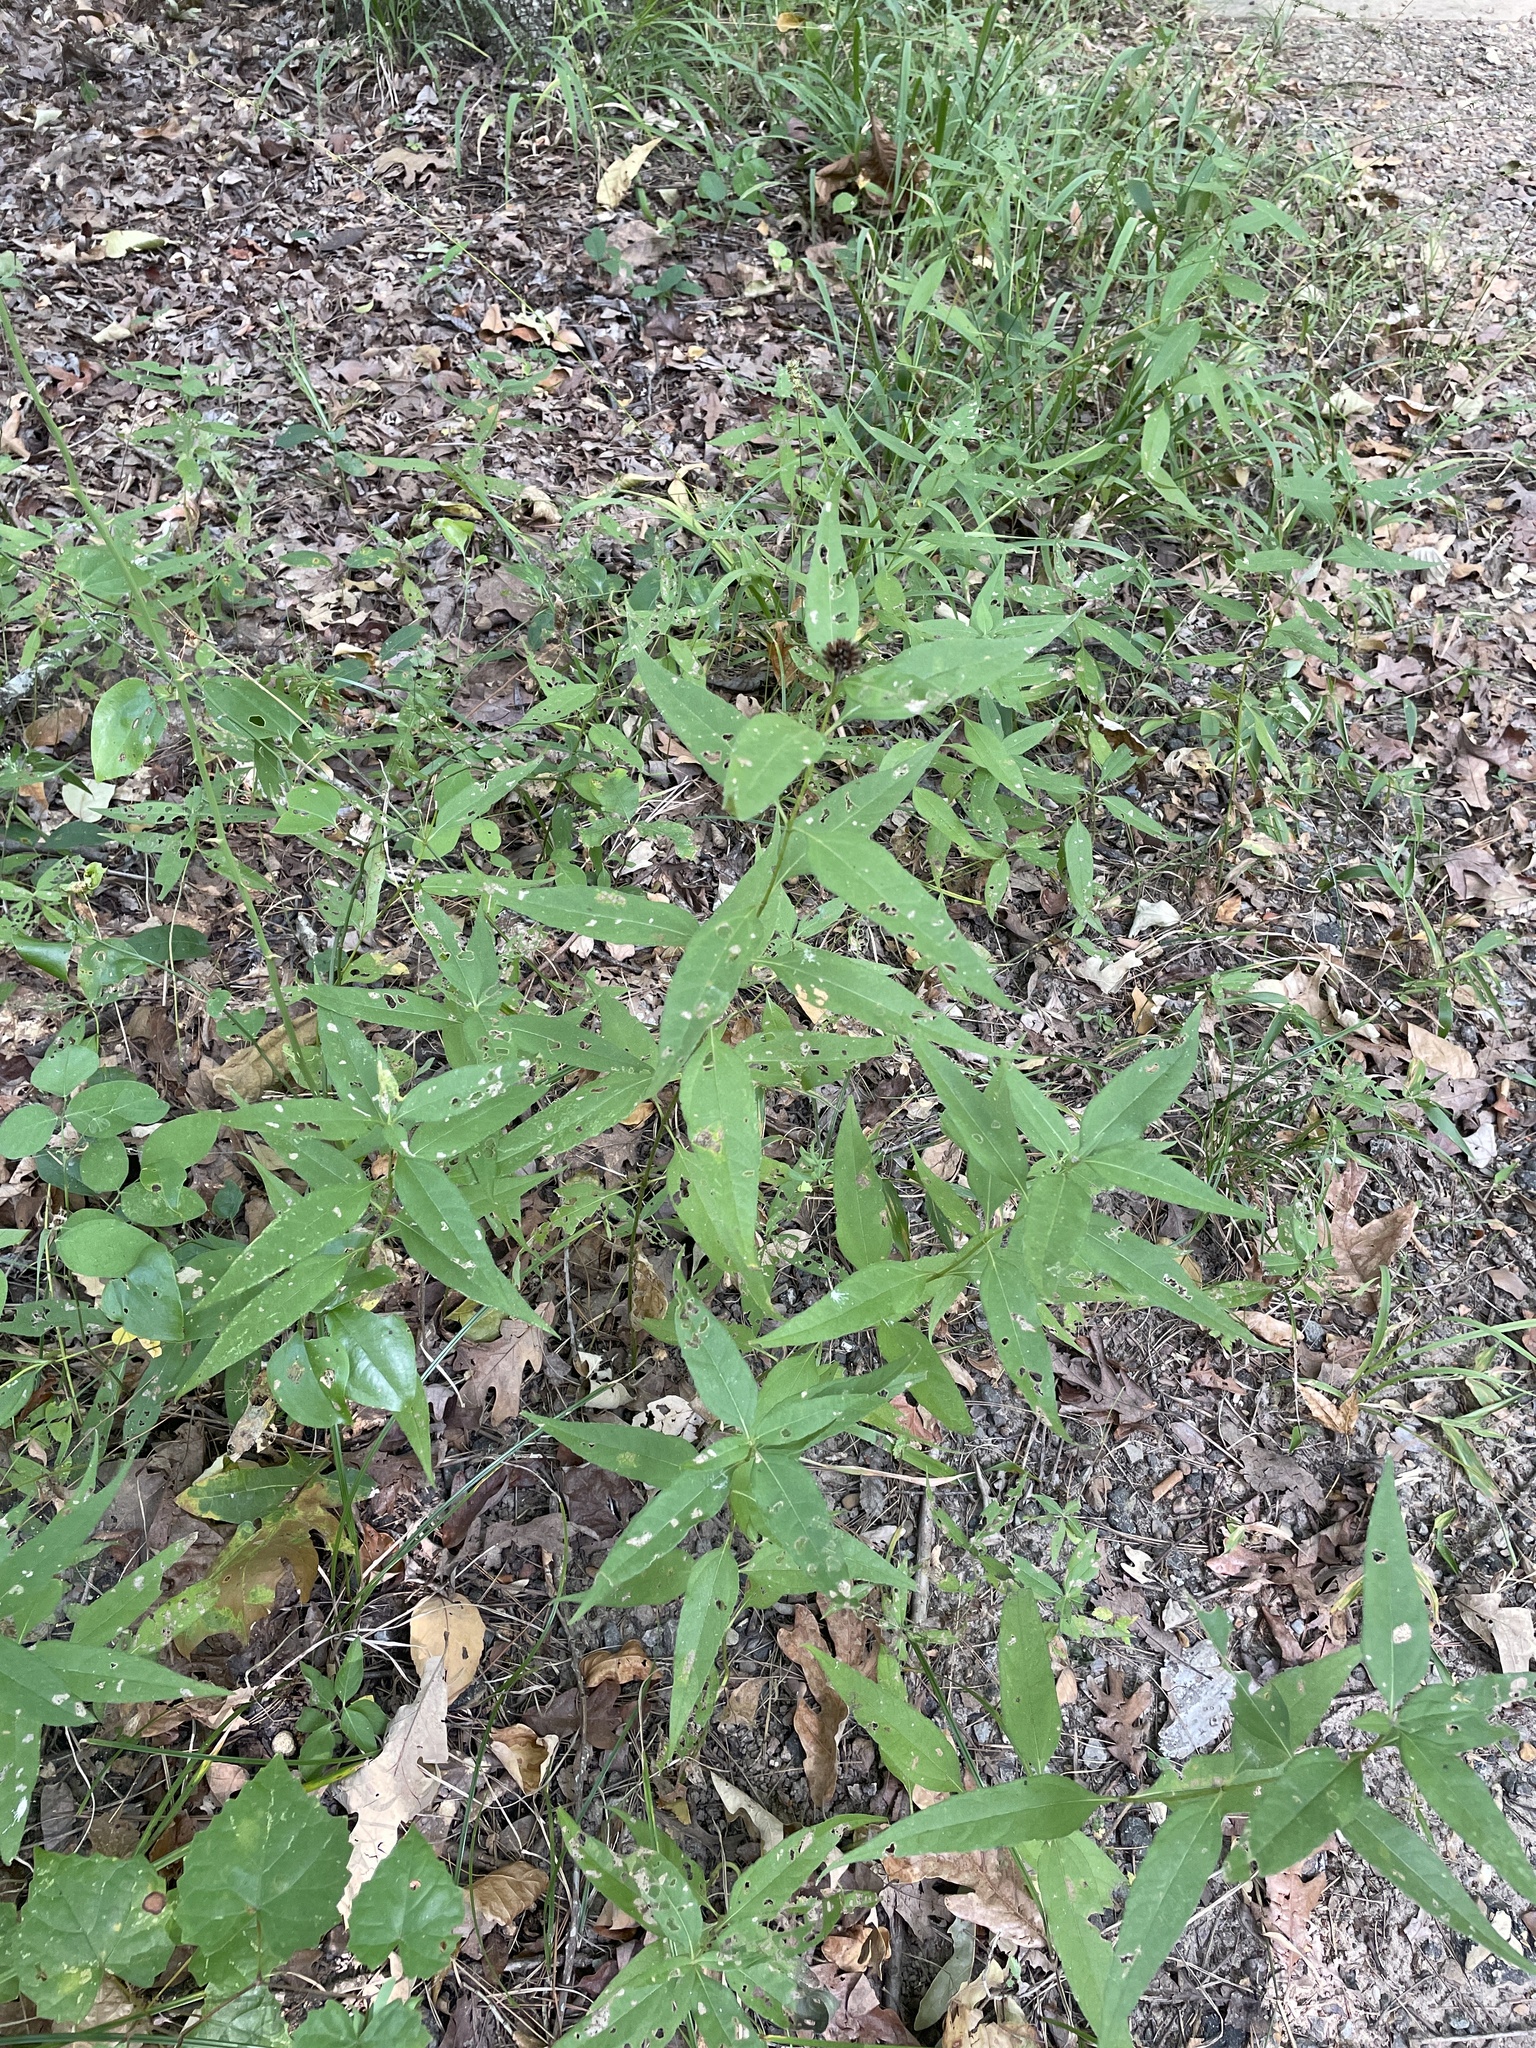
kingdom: Plantae
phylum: Tracheophyta
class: Magnoliopsida
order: Asterales
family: Asteraceae
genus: Helianthus
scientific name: Helianthus hirsutus
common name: Hairy sunflower
